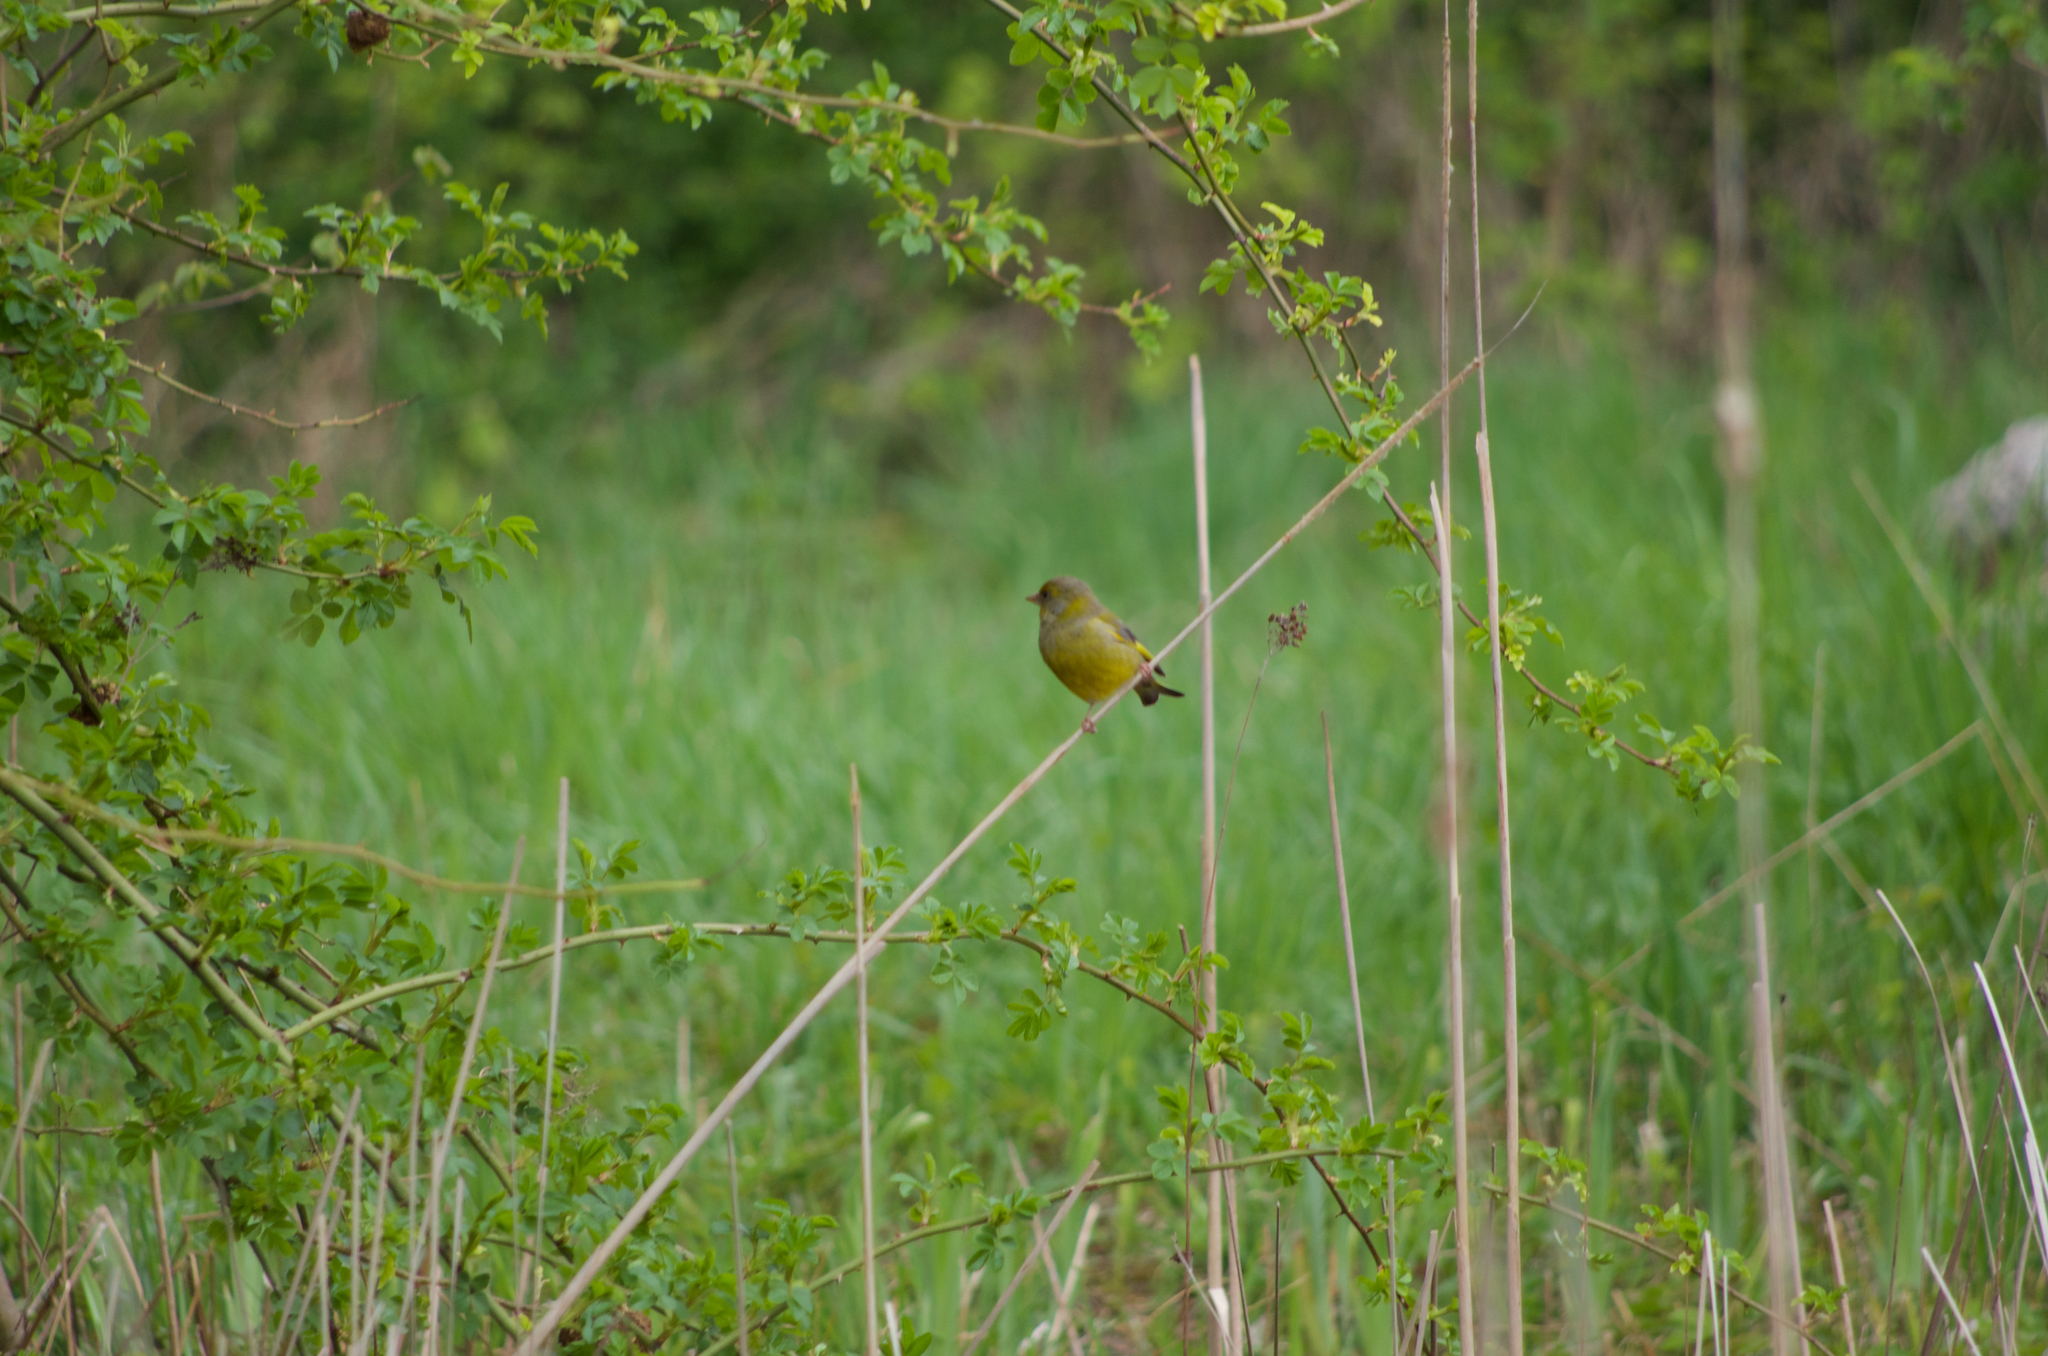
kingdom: Plantae
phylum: Tracheophyta
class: Liliopsida
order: Poales
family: Poaceae
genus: Chloris
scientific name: Chloris chloris
